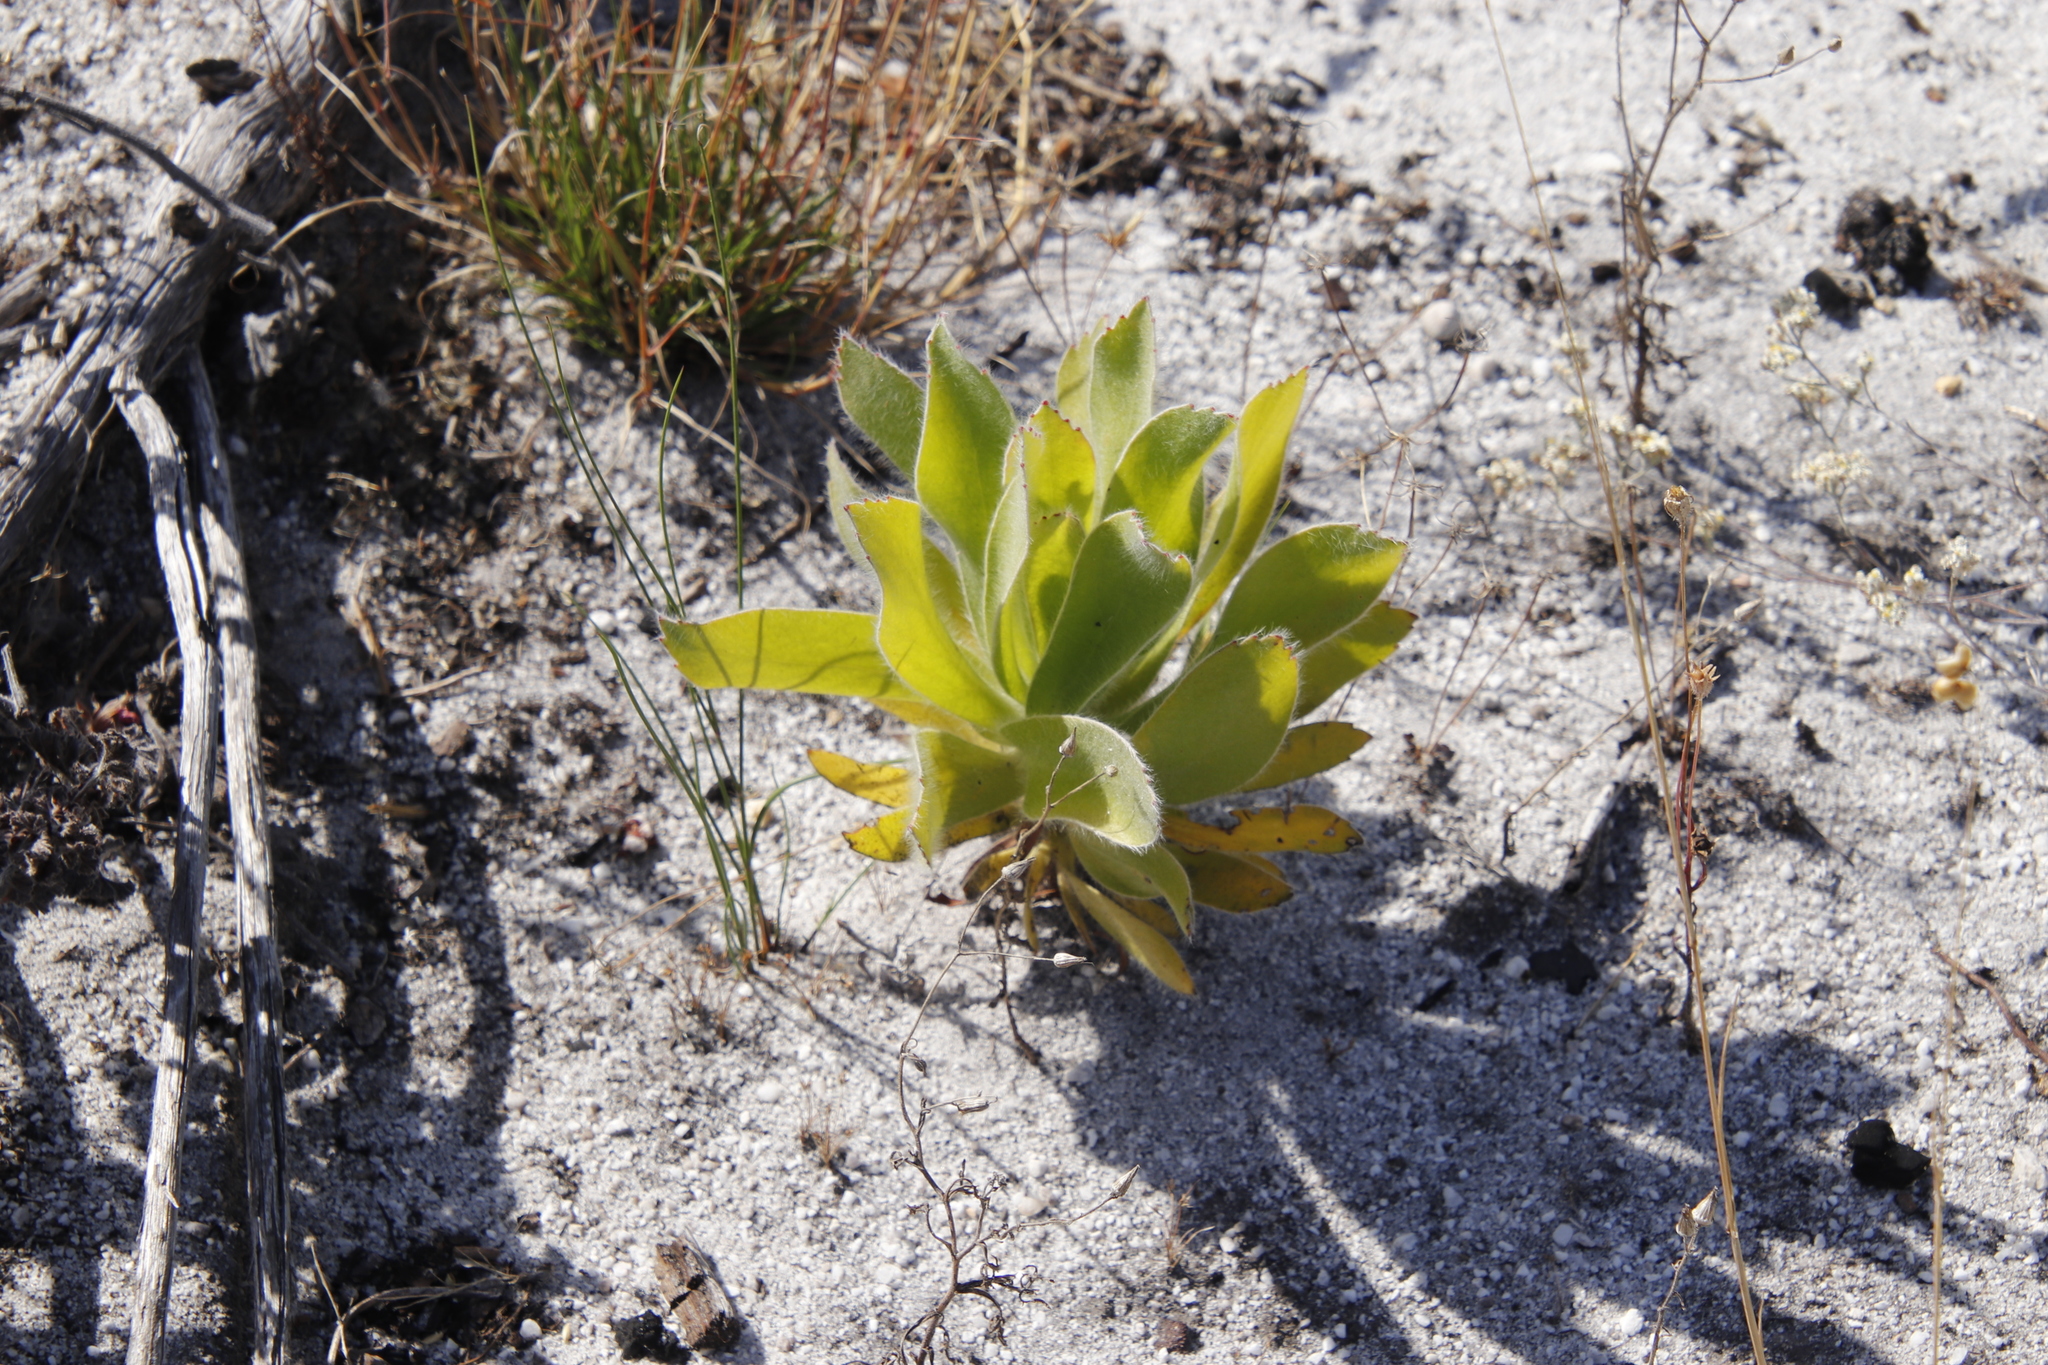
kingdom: Plantae
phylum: Tracheophyta
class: Magnoliopsida
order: Proteales
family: Proteaceae
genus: Leucospermum
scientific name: Leucospermum conocarpodendron
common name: Tree pincushion
